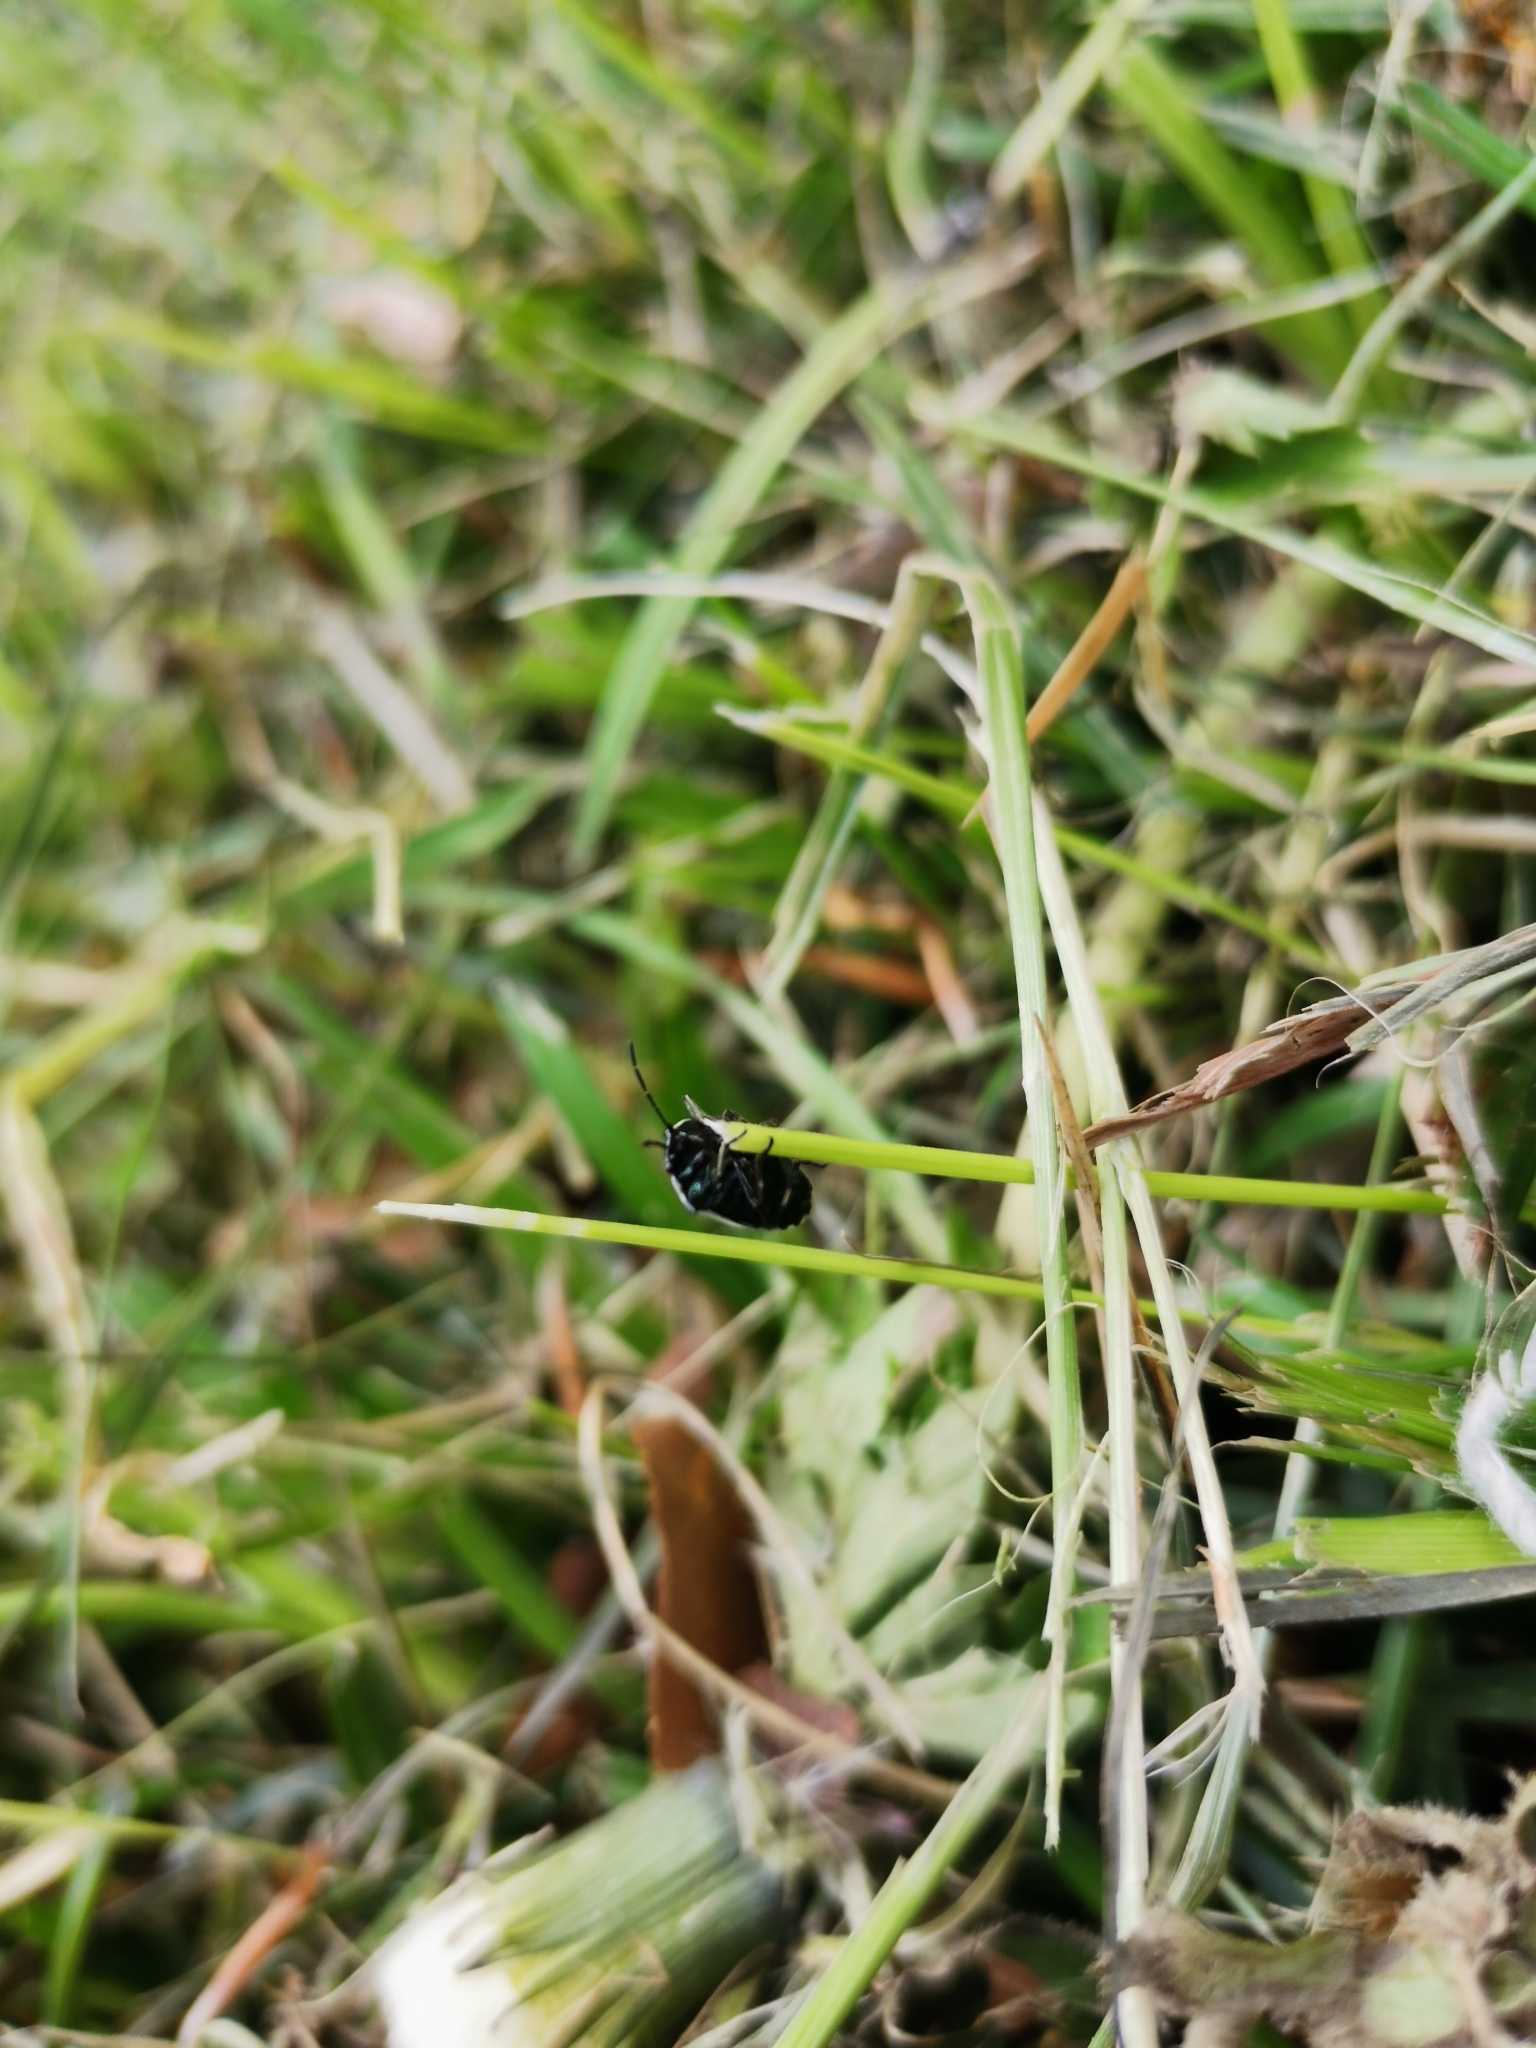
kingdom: Animalia
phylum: Arthropoda
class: Insecta
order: Hemiptera
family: Pentatomidae
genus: Eurydema
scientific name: Eurydema oleracea
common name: Cabbage bug
